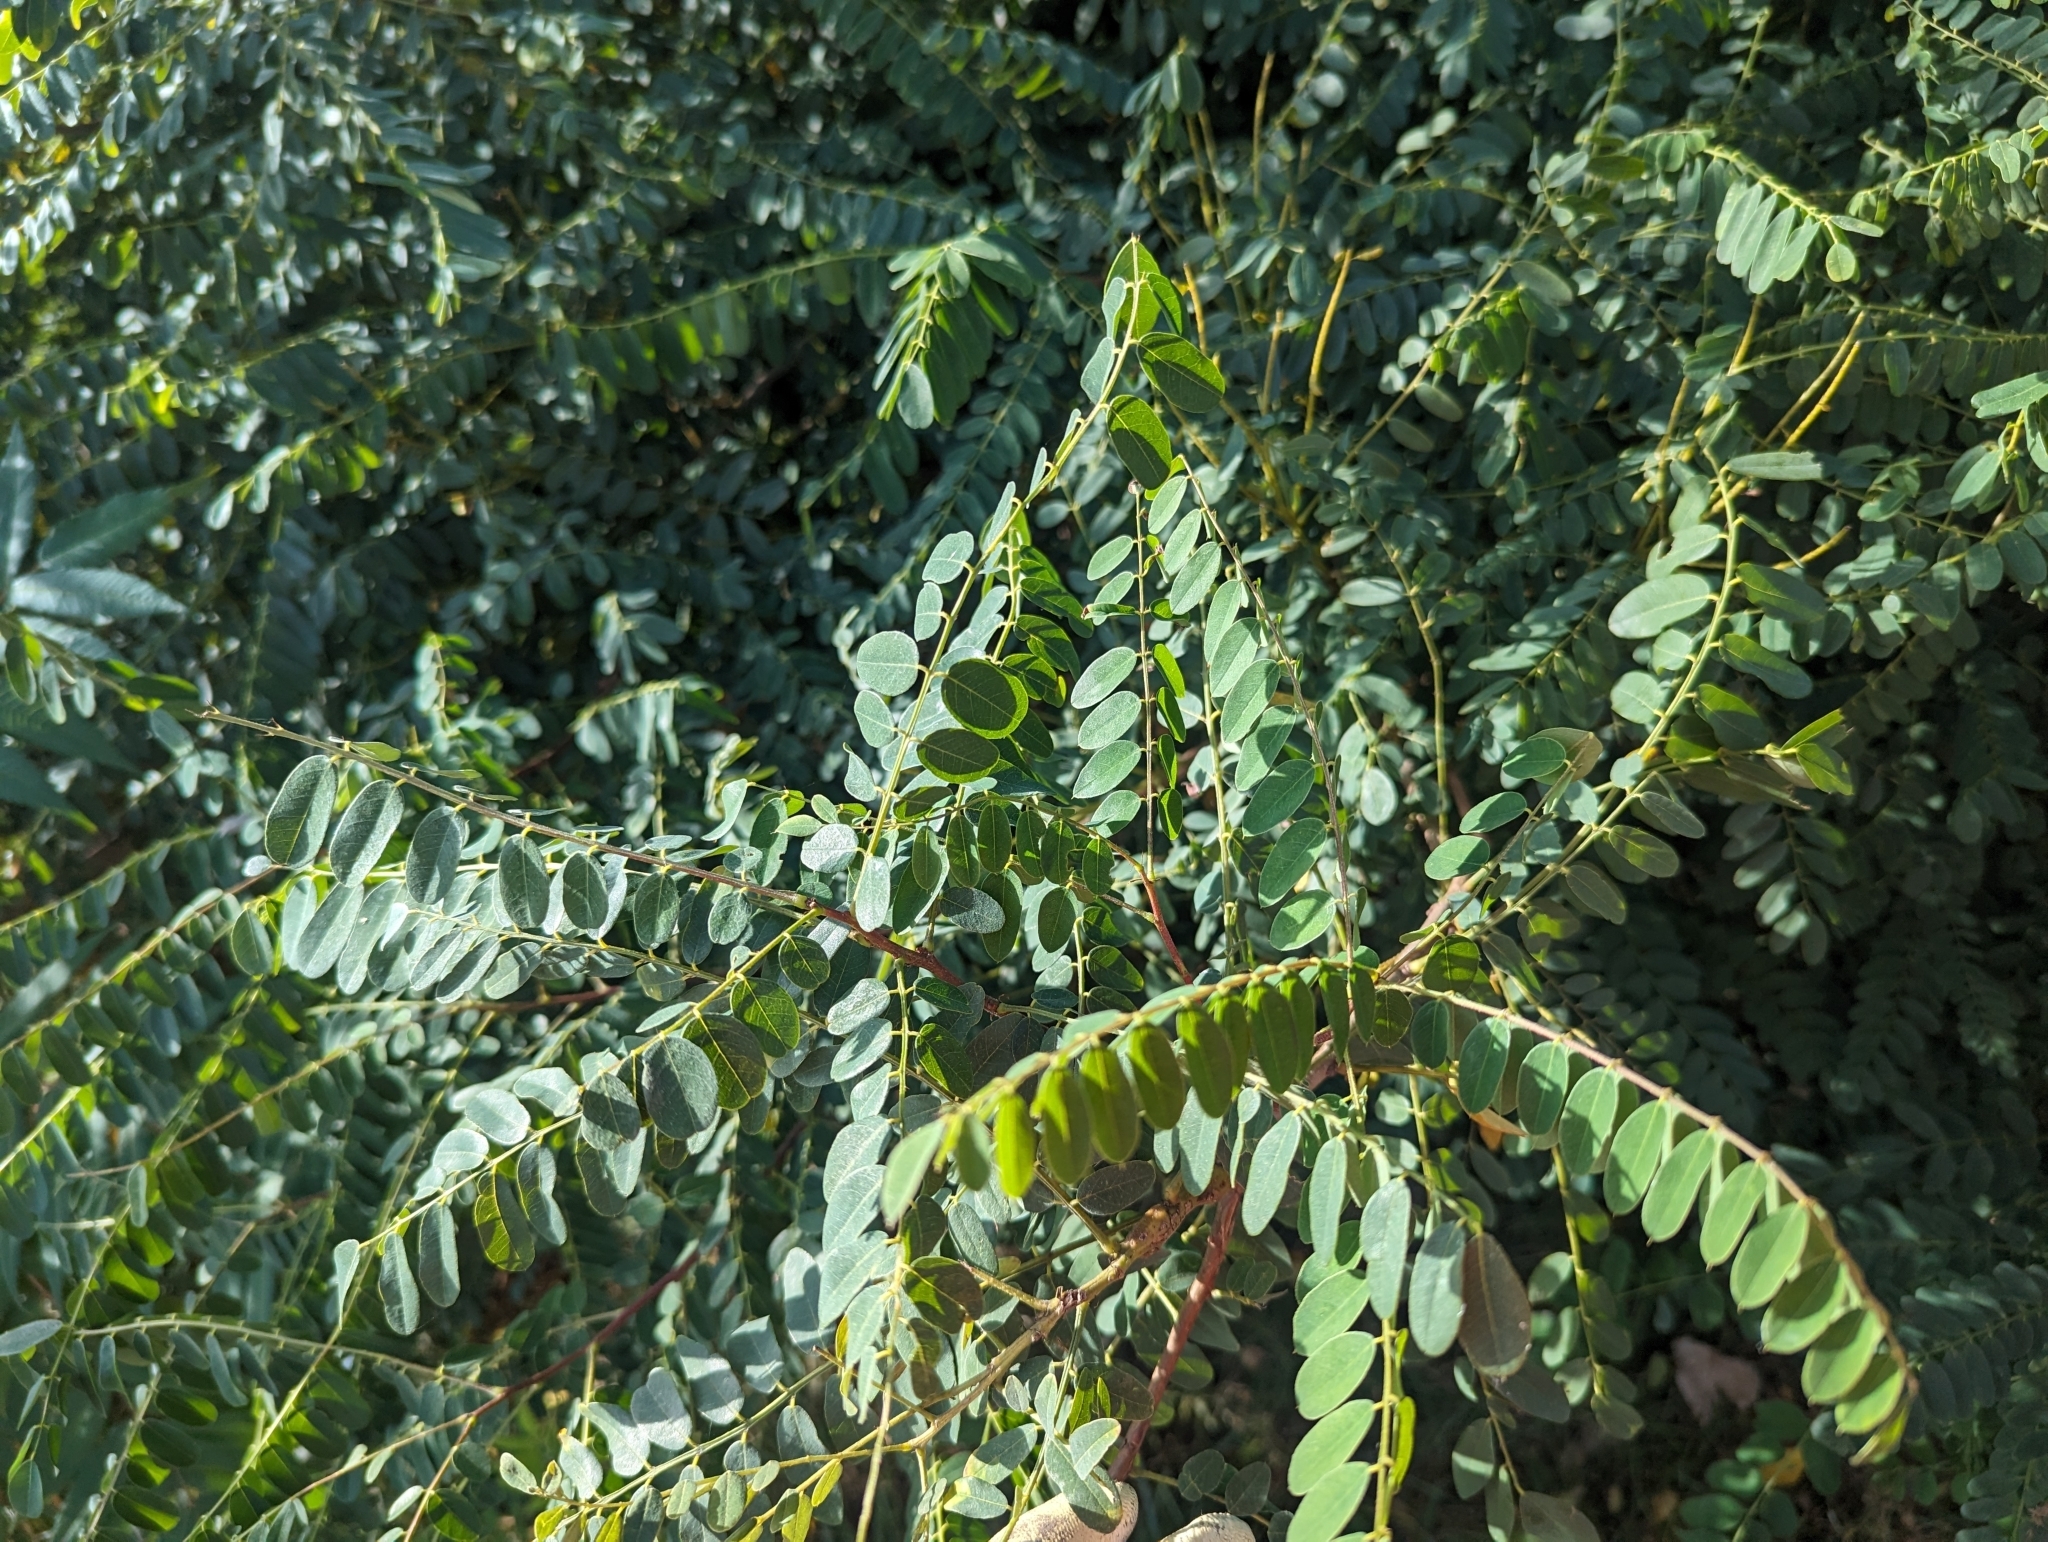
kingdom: Plantae
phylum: Tracheophyta
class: Magnoliopsida
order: Fabales
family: Fabaceae
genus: Robinia
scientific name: Robinia pseudoacacia
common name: Black locust
